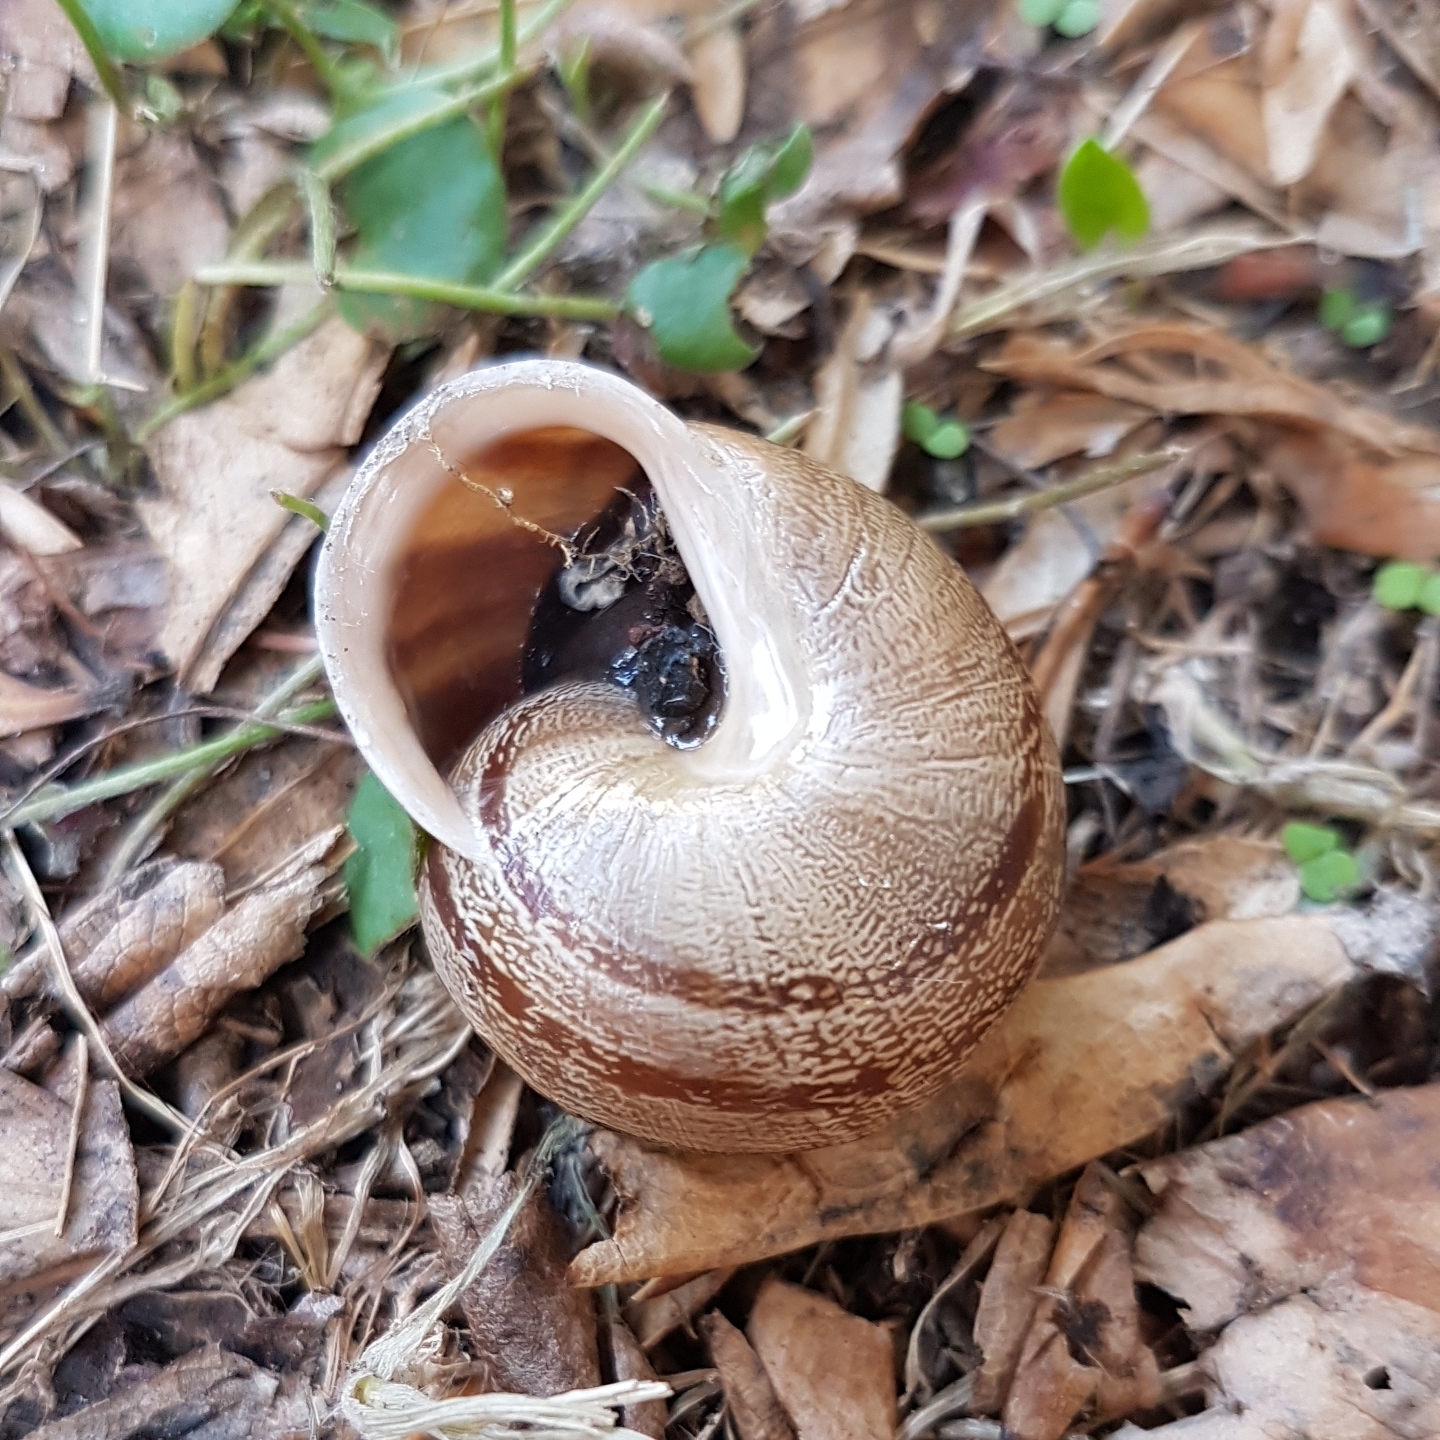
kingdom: Animalia
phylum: Mollusca
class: Gastropoda
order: Stylommatophora
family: Helicidae
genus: Eobania
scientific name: Eobania vermiculata
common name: Chocolateband snail
